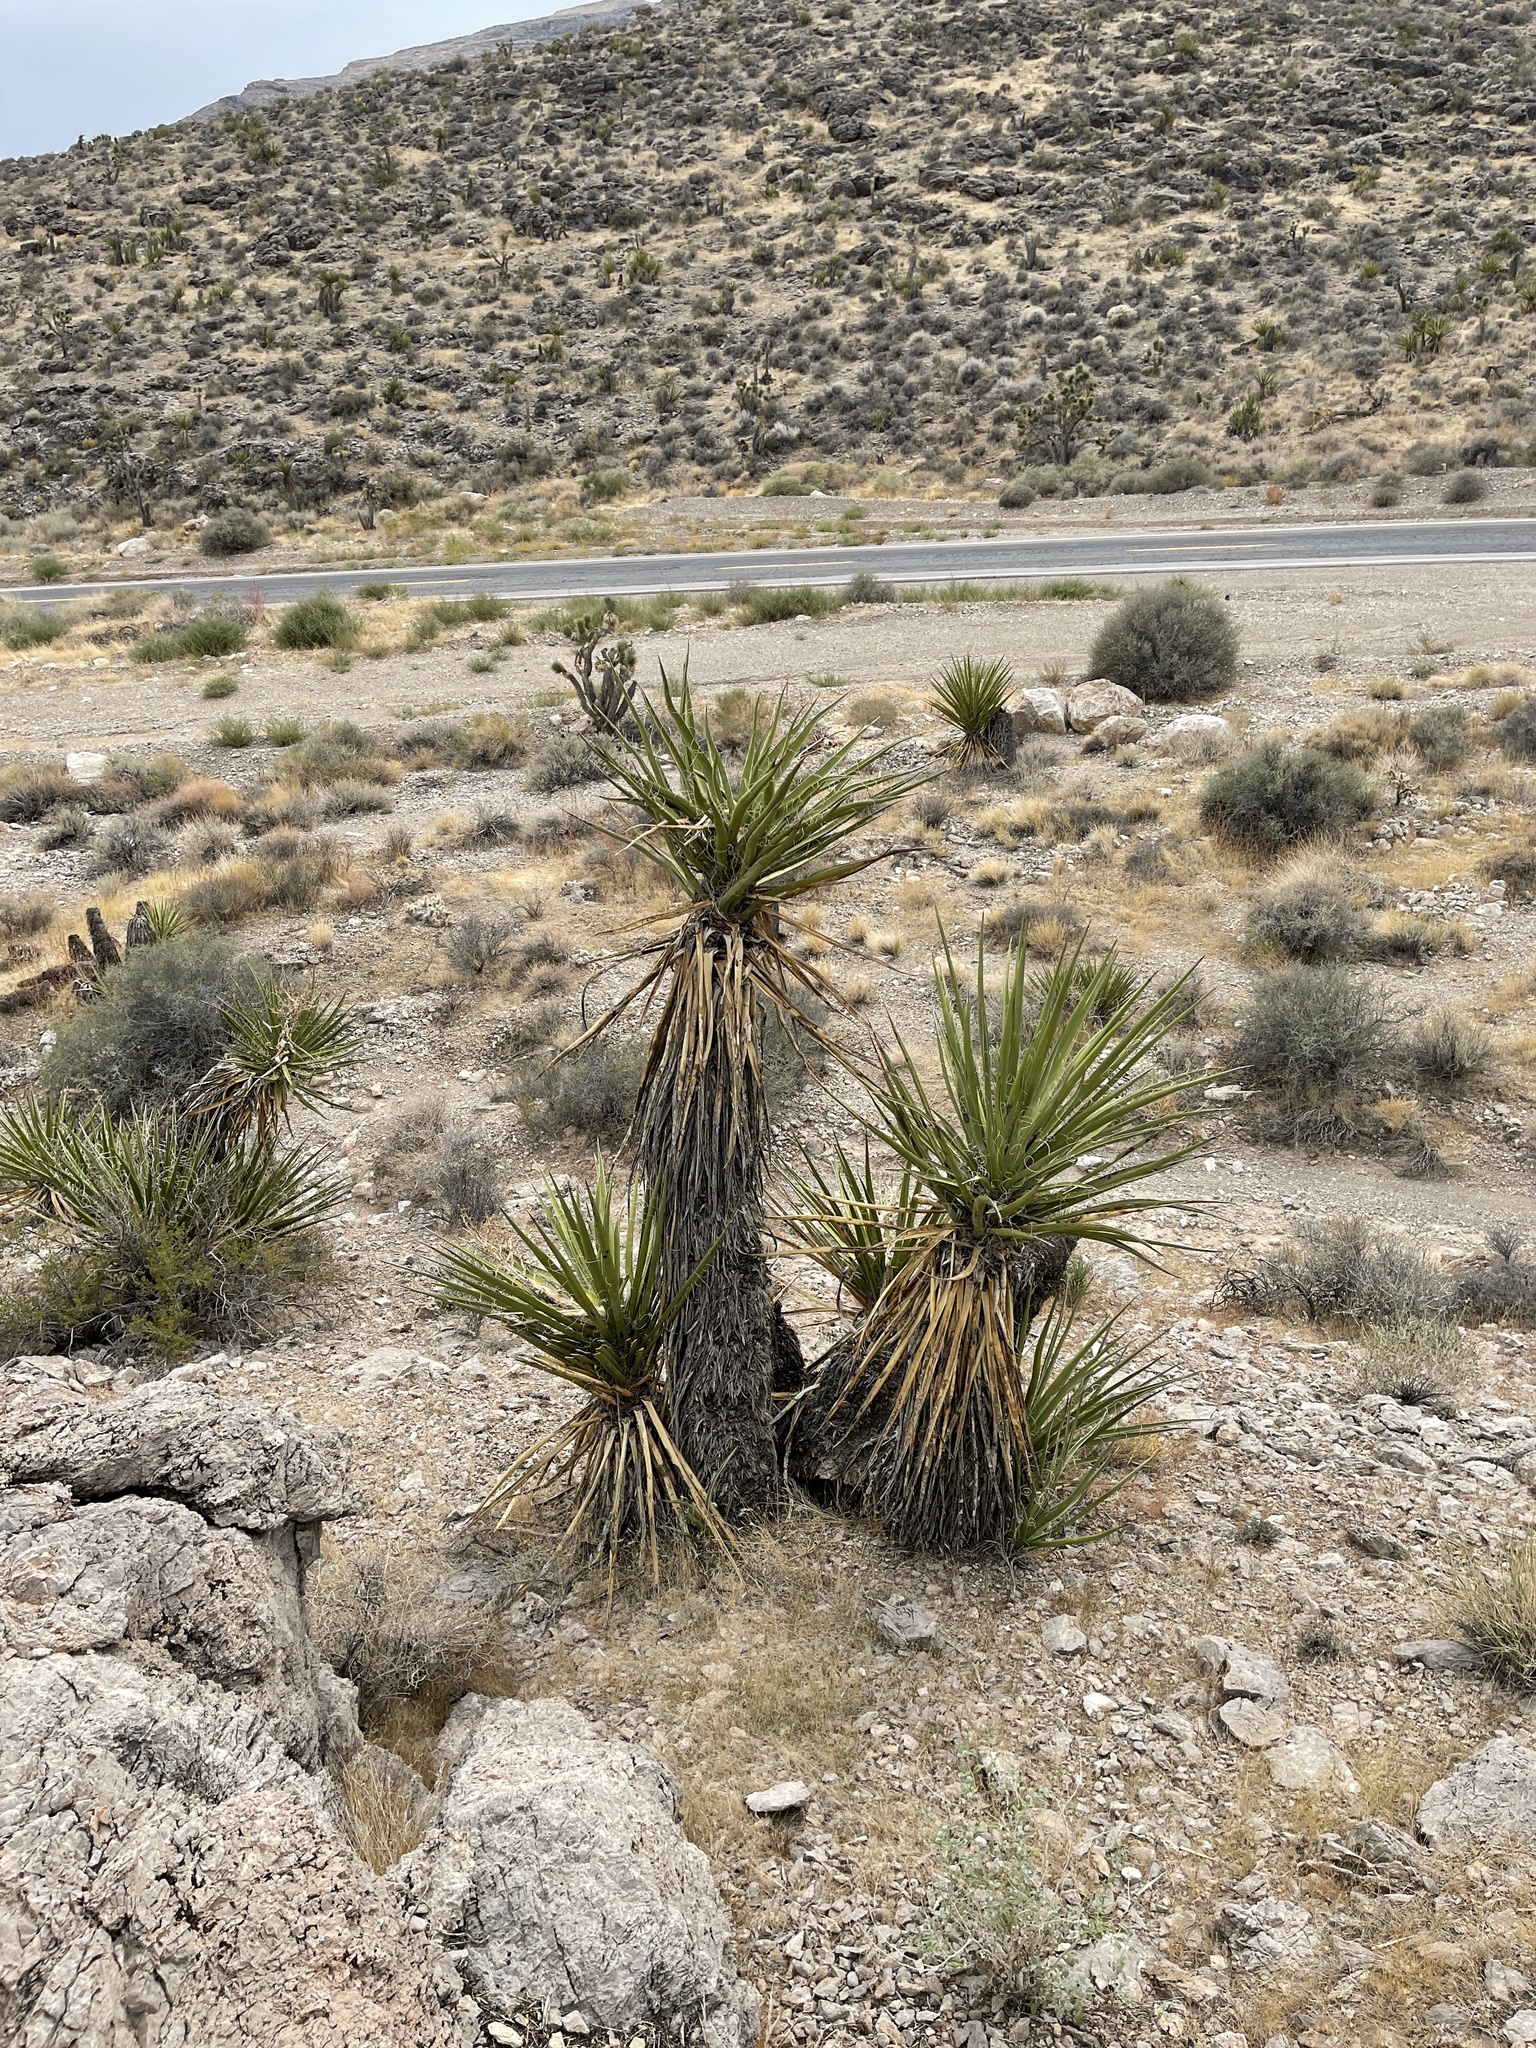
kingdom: Plantae
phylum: Tracheophyta
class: Liliopsida
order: Asparagales
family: Asparagaceae
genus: Yucca
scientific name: Yucca schidigera
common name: Mojave yucca
